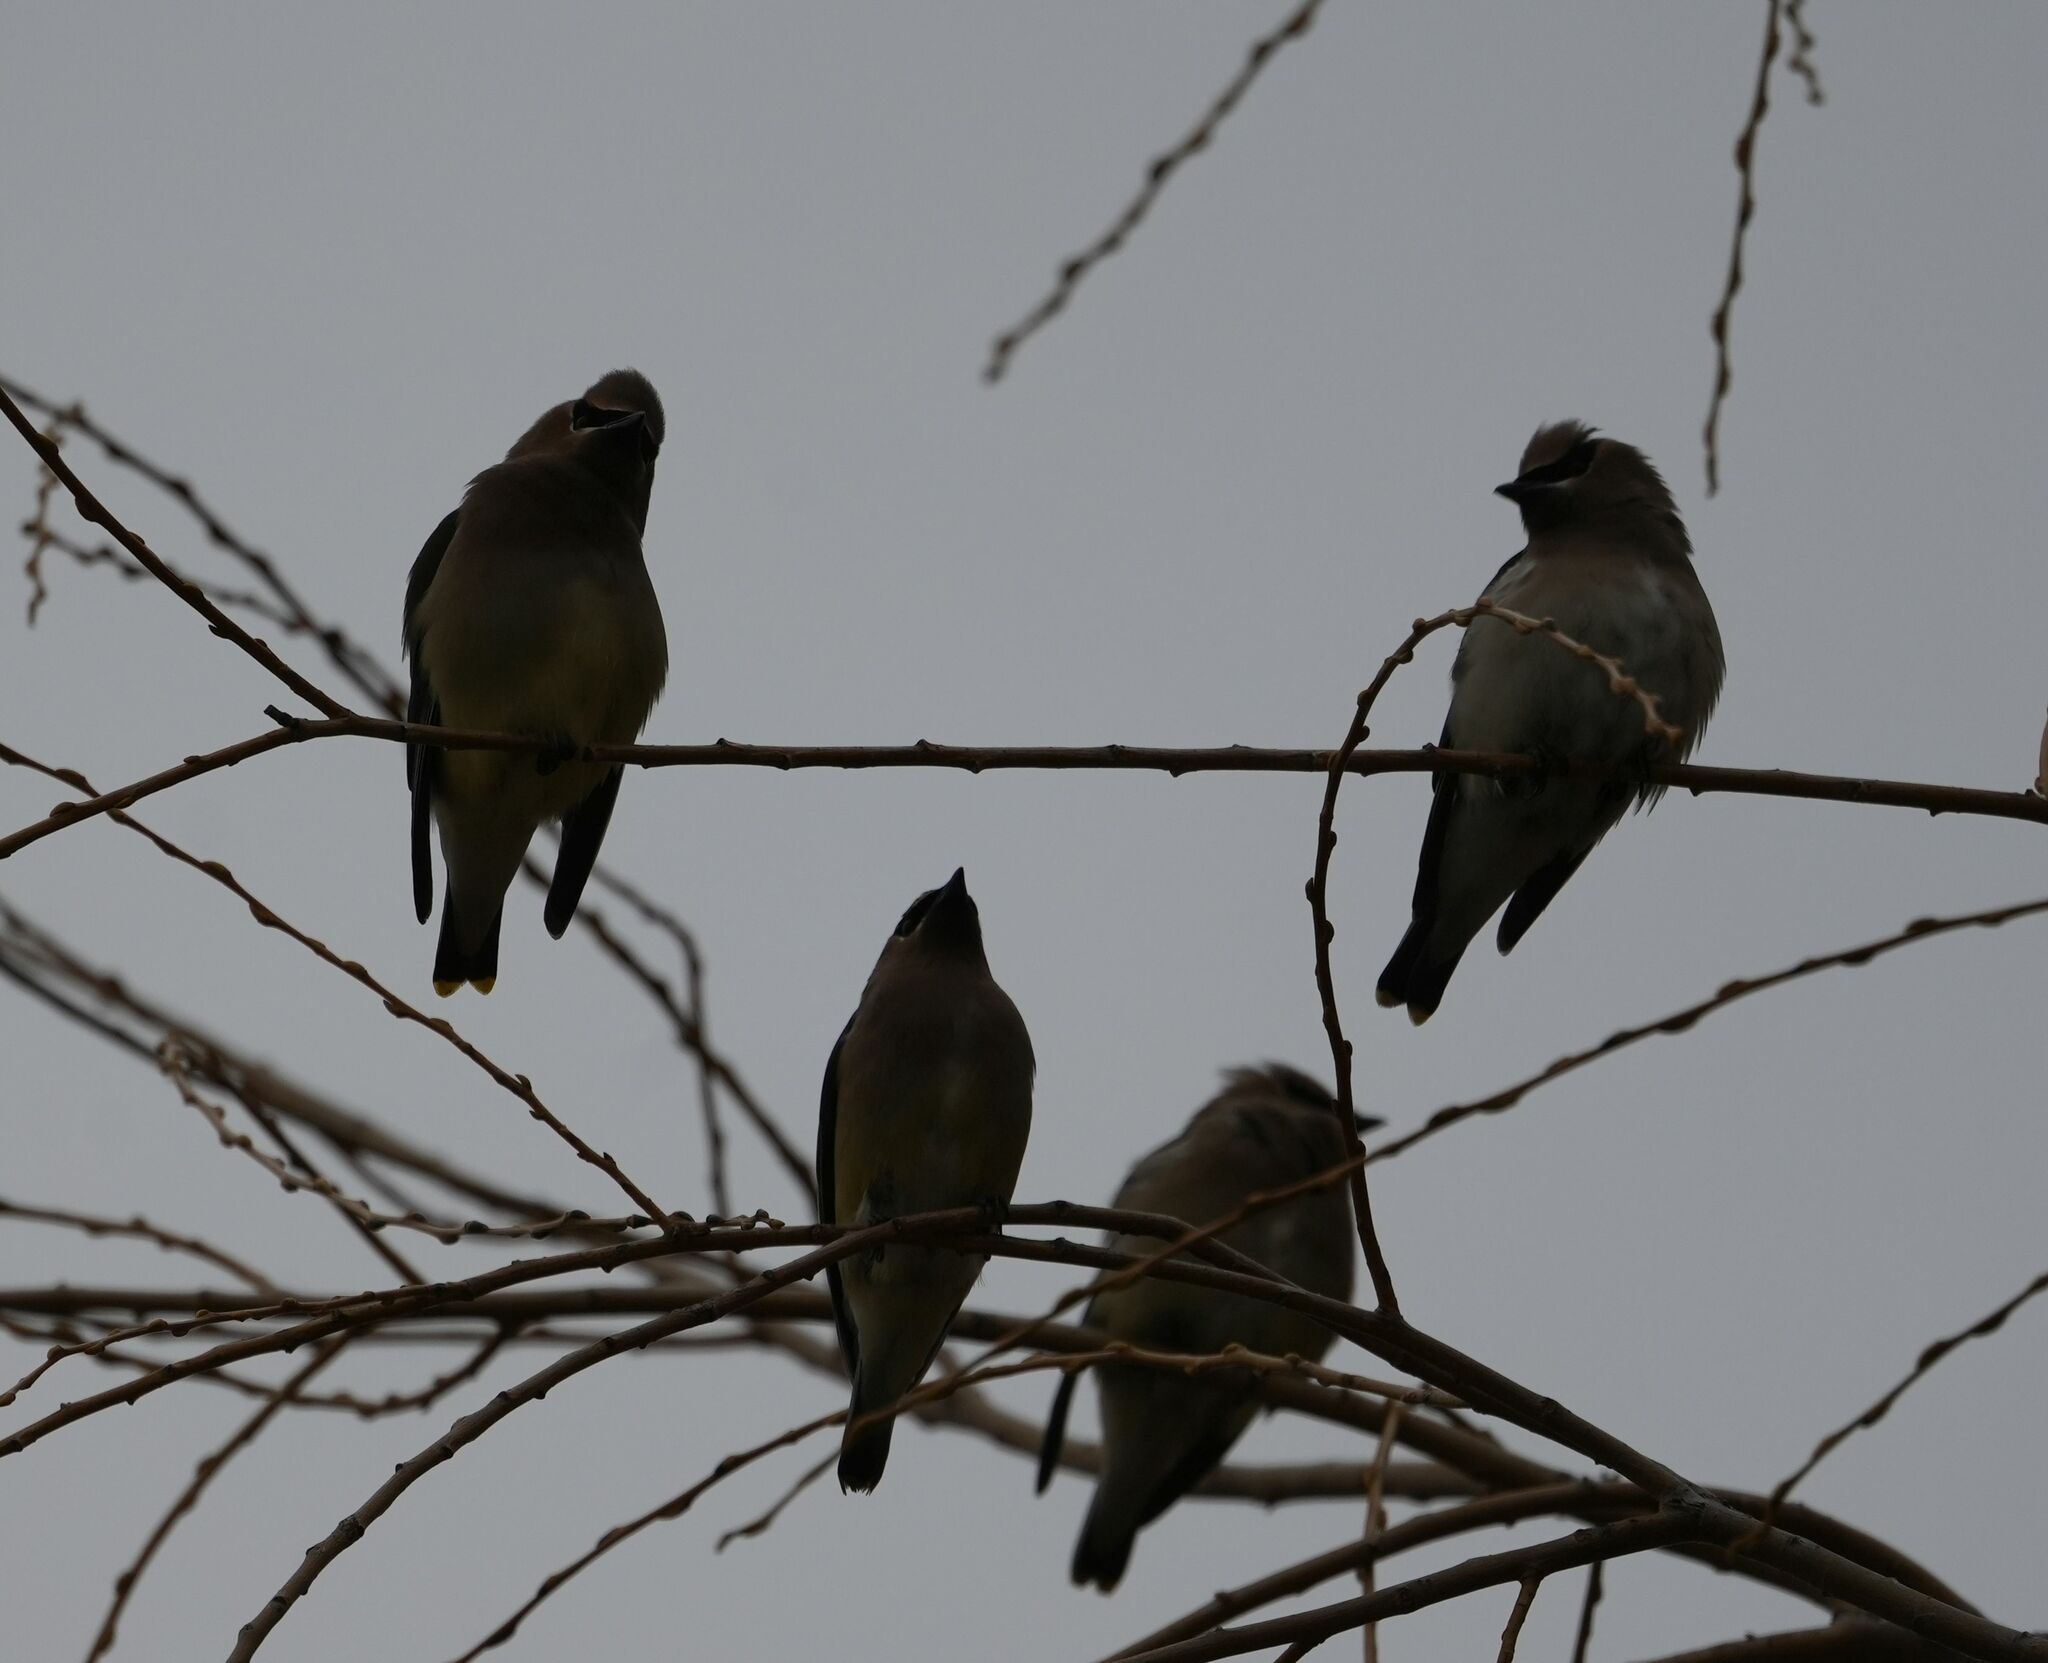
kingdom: Animalia
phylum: Chordata
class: Aves
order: Passeriformes
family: Bombycillidae
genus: Bombycilla
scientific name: Bombycilla cedrorum
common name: Cedar waxwing
